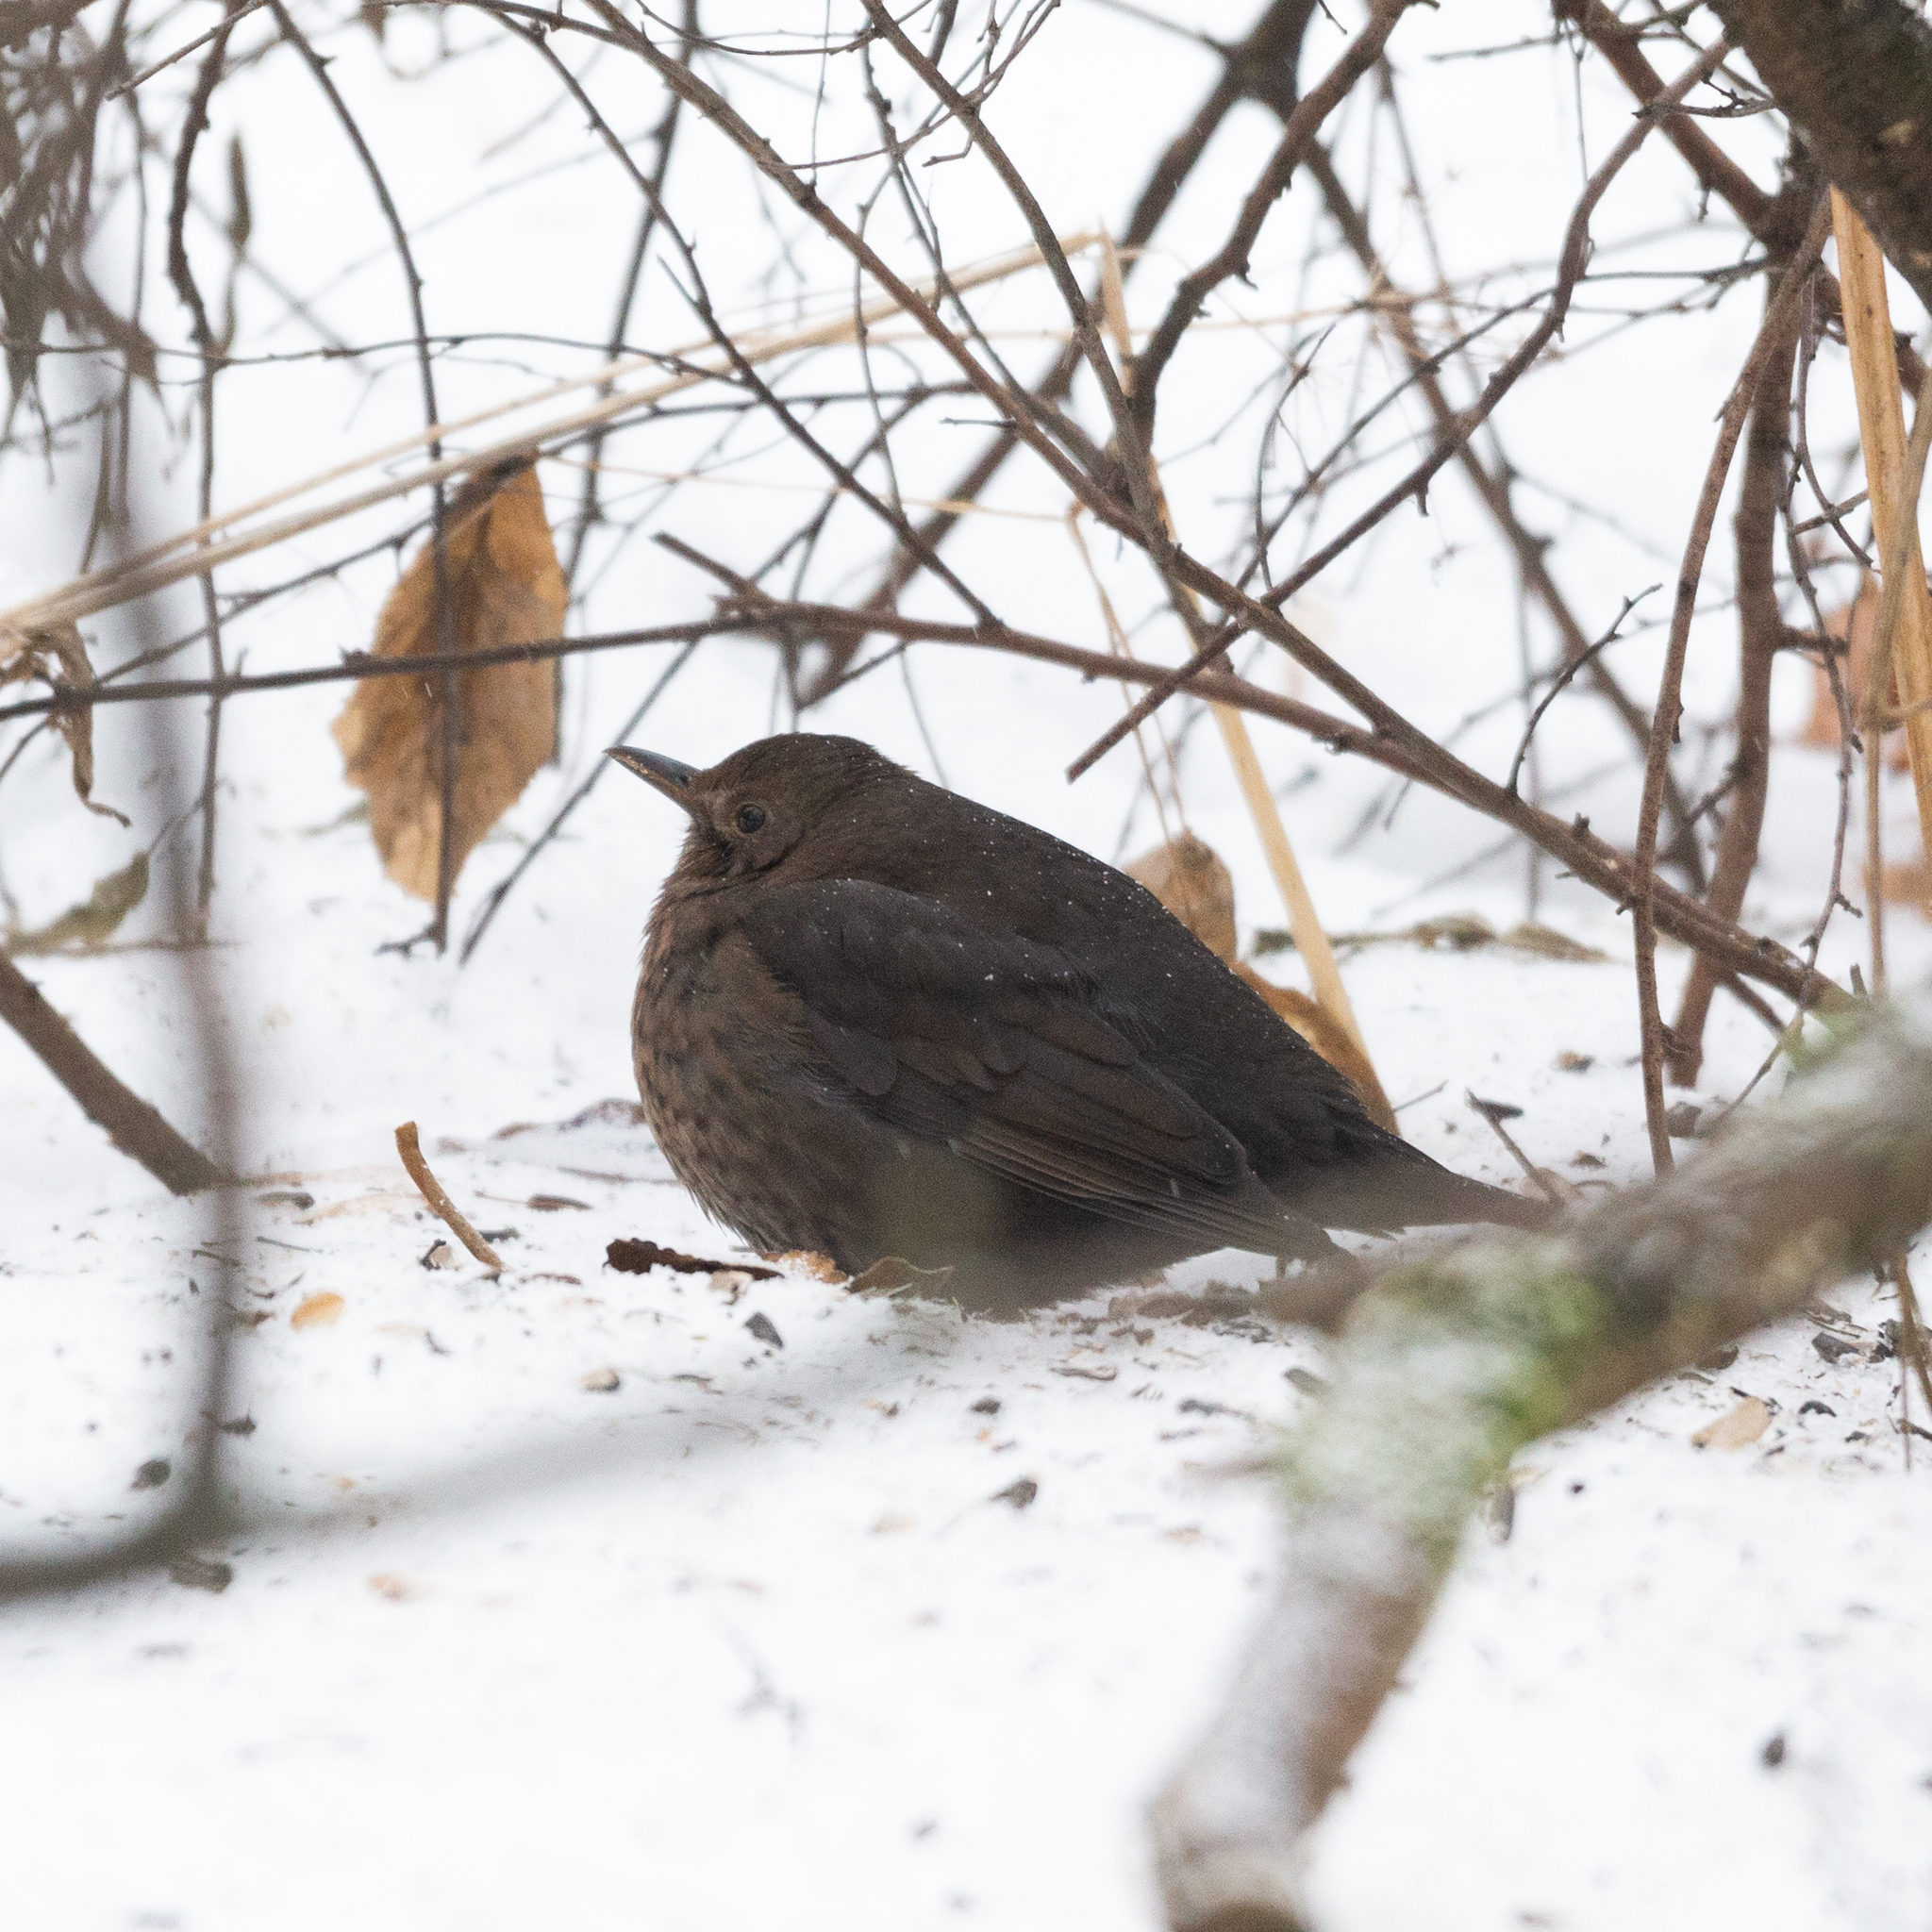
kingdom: Animalia
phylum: Chordata
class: Aves
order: Passeriformes
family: Turdidae
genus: Turdus
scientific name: Turdus merula
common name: Common blackbird
